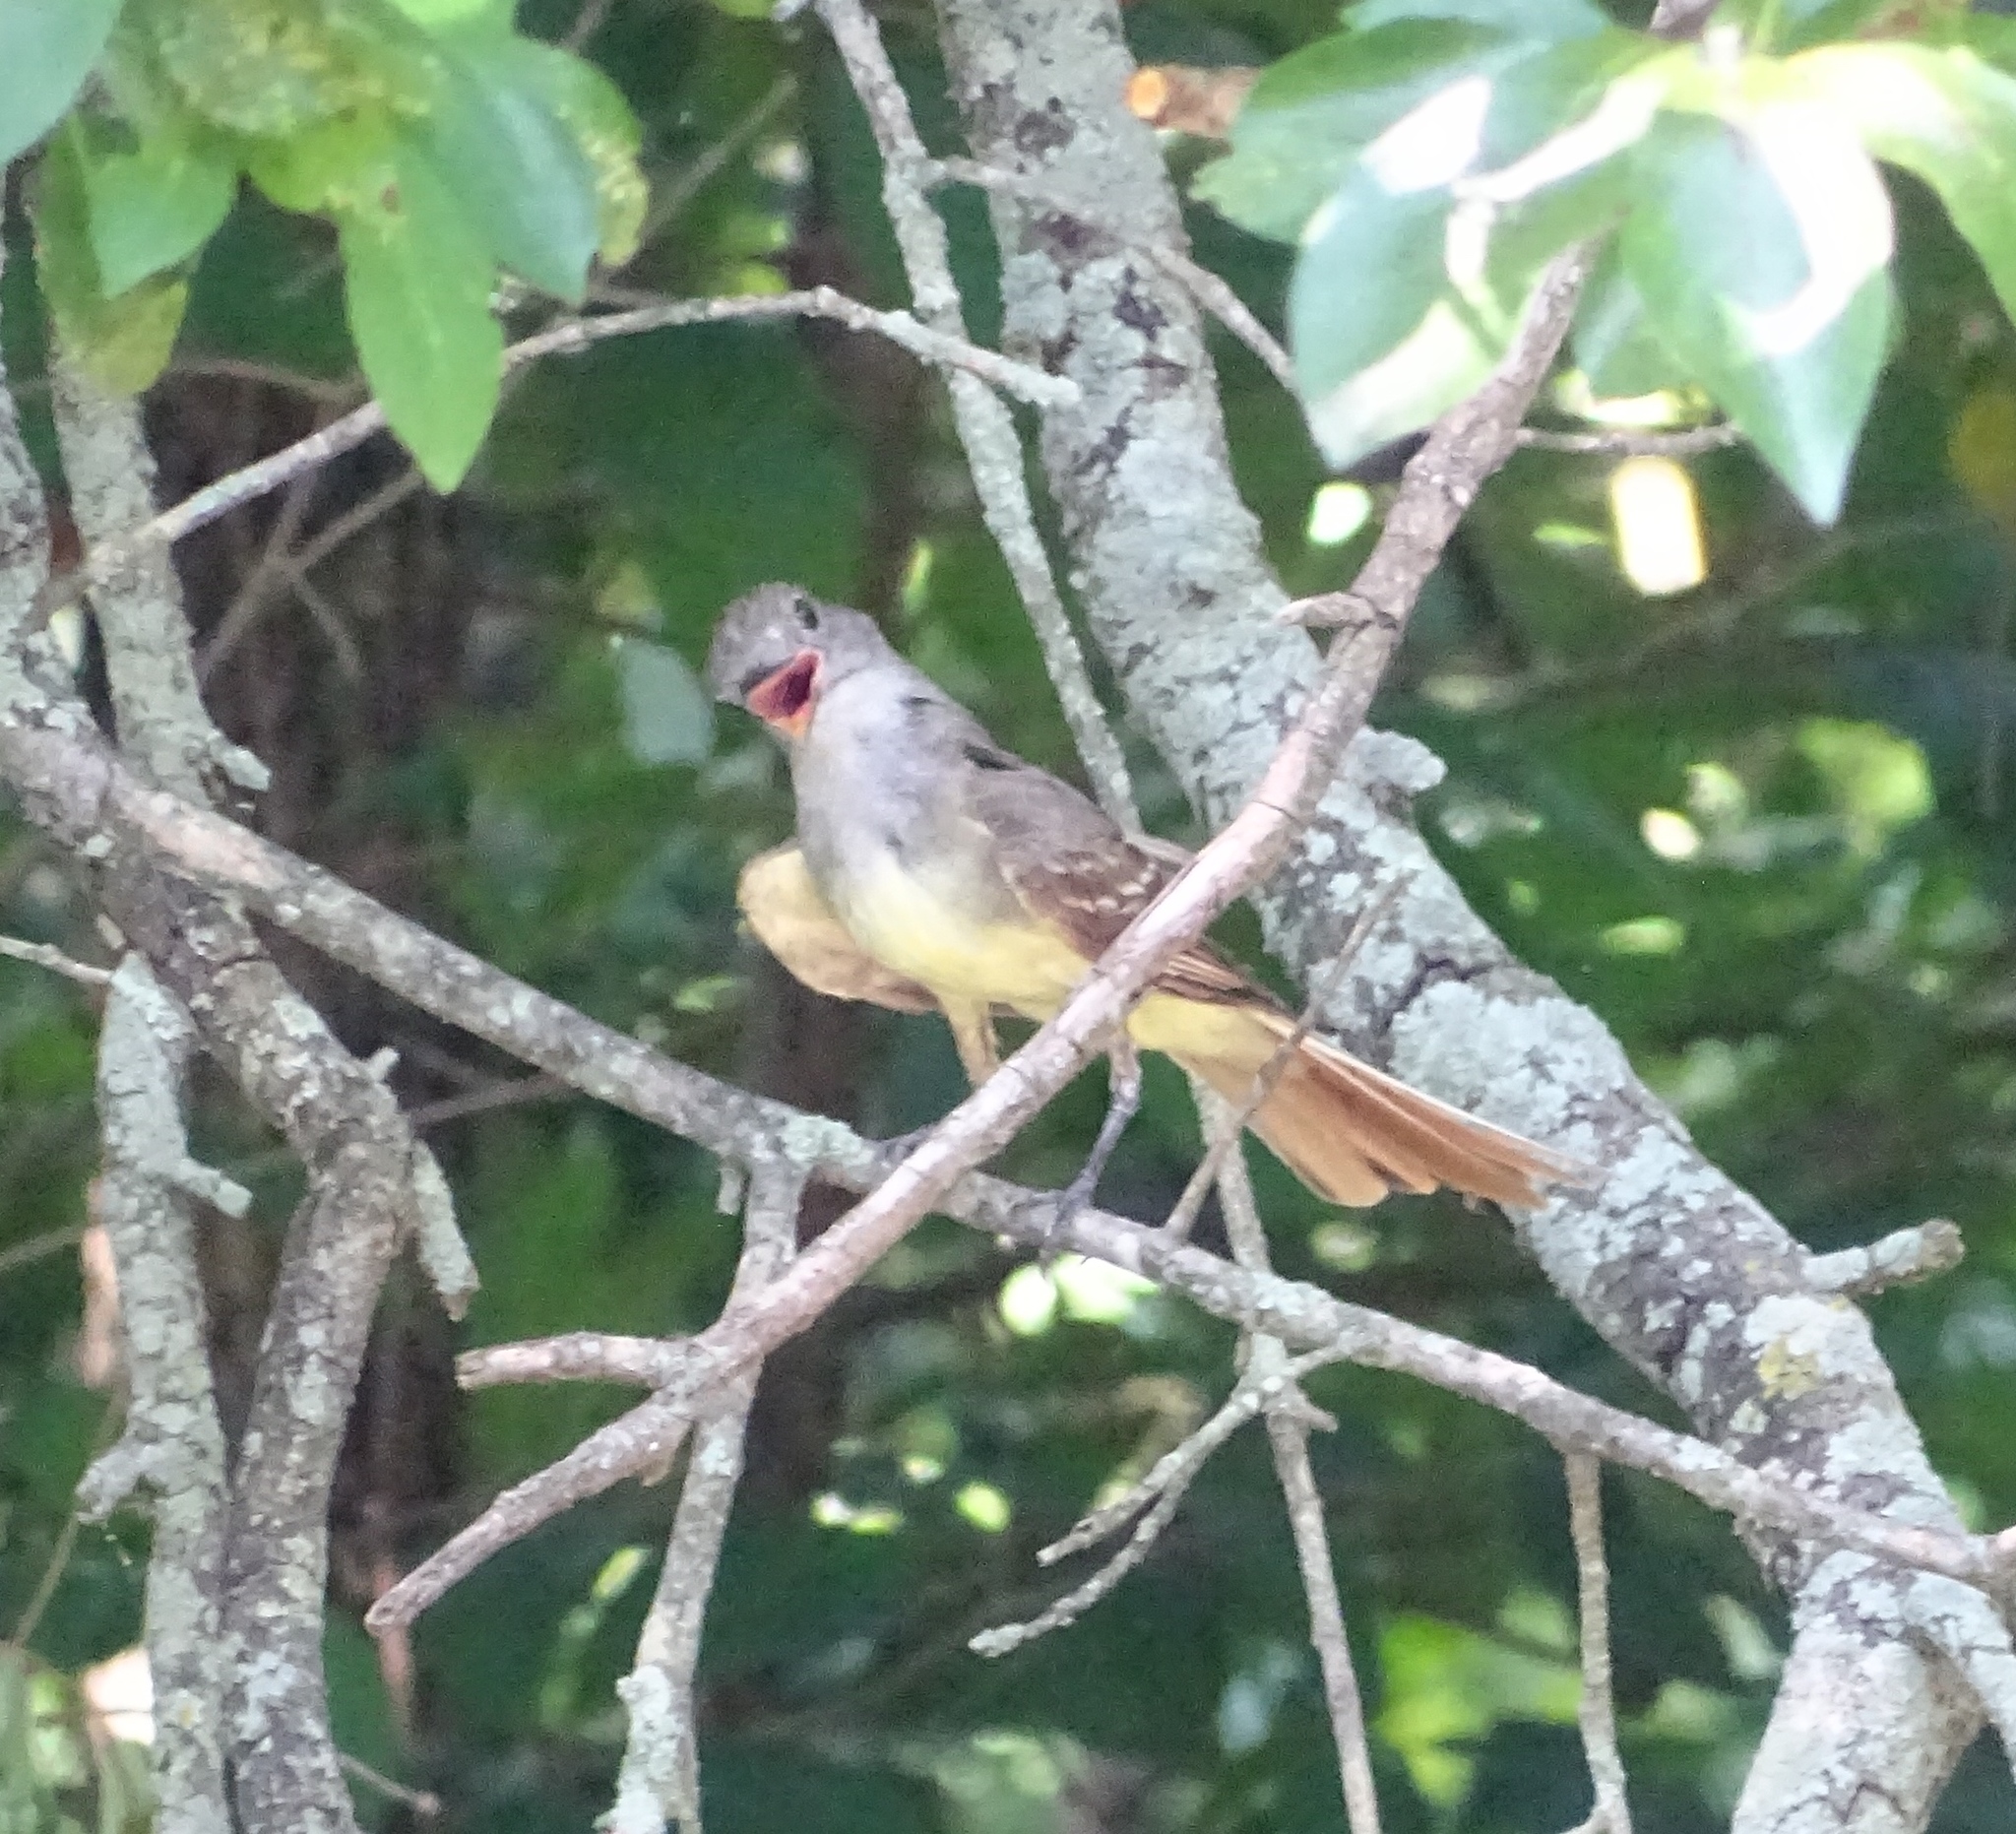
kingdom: Animalia
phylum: Chordata
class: Aves
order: Passeriformes
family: Tyrannidae
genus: Myiarchus
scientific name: Myiarchus crinitus
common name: Great crested flycatcher
